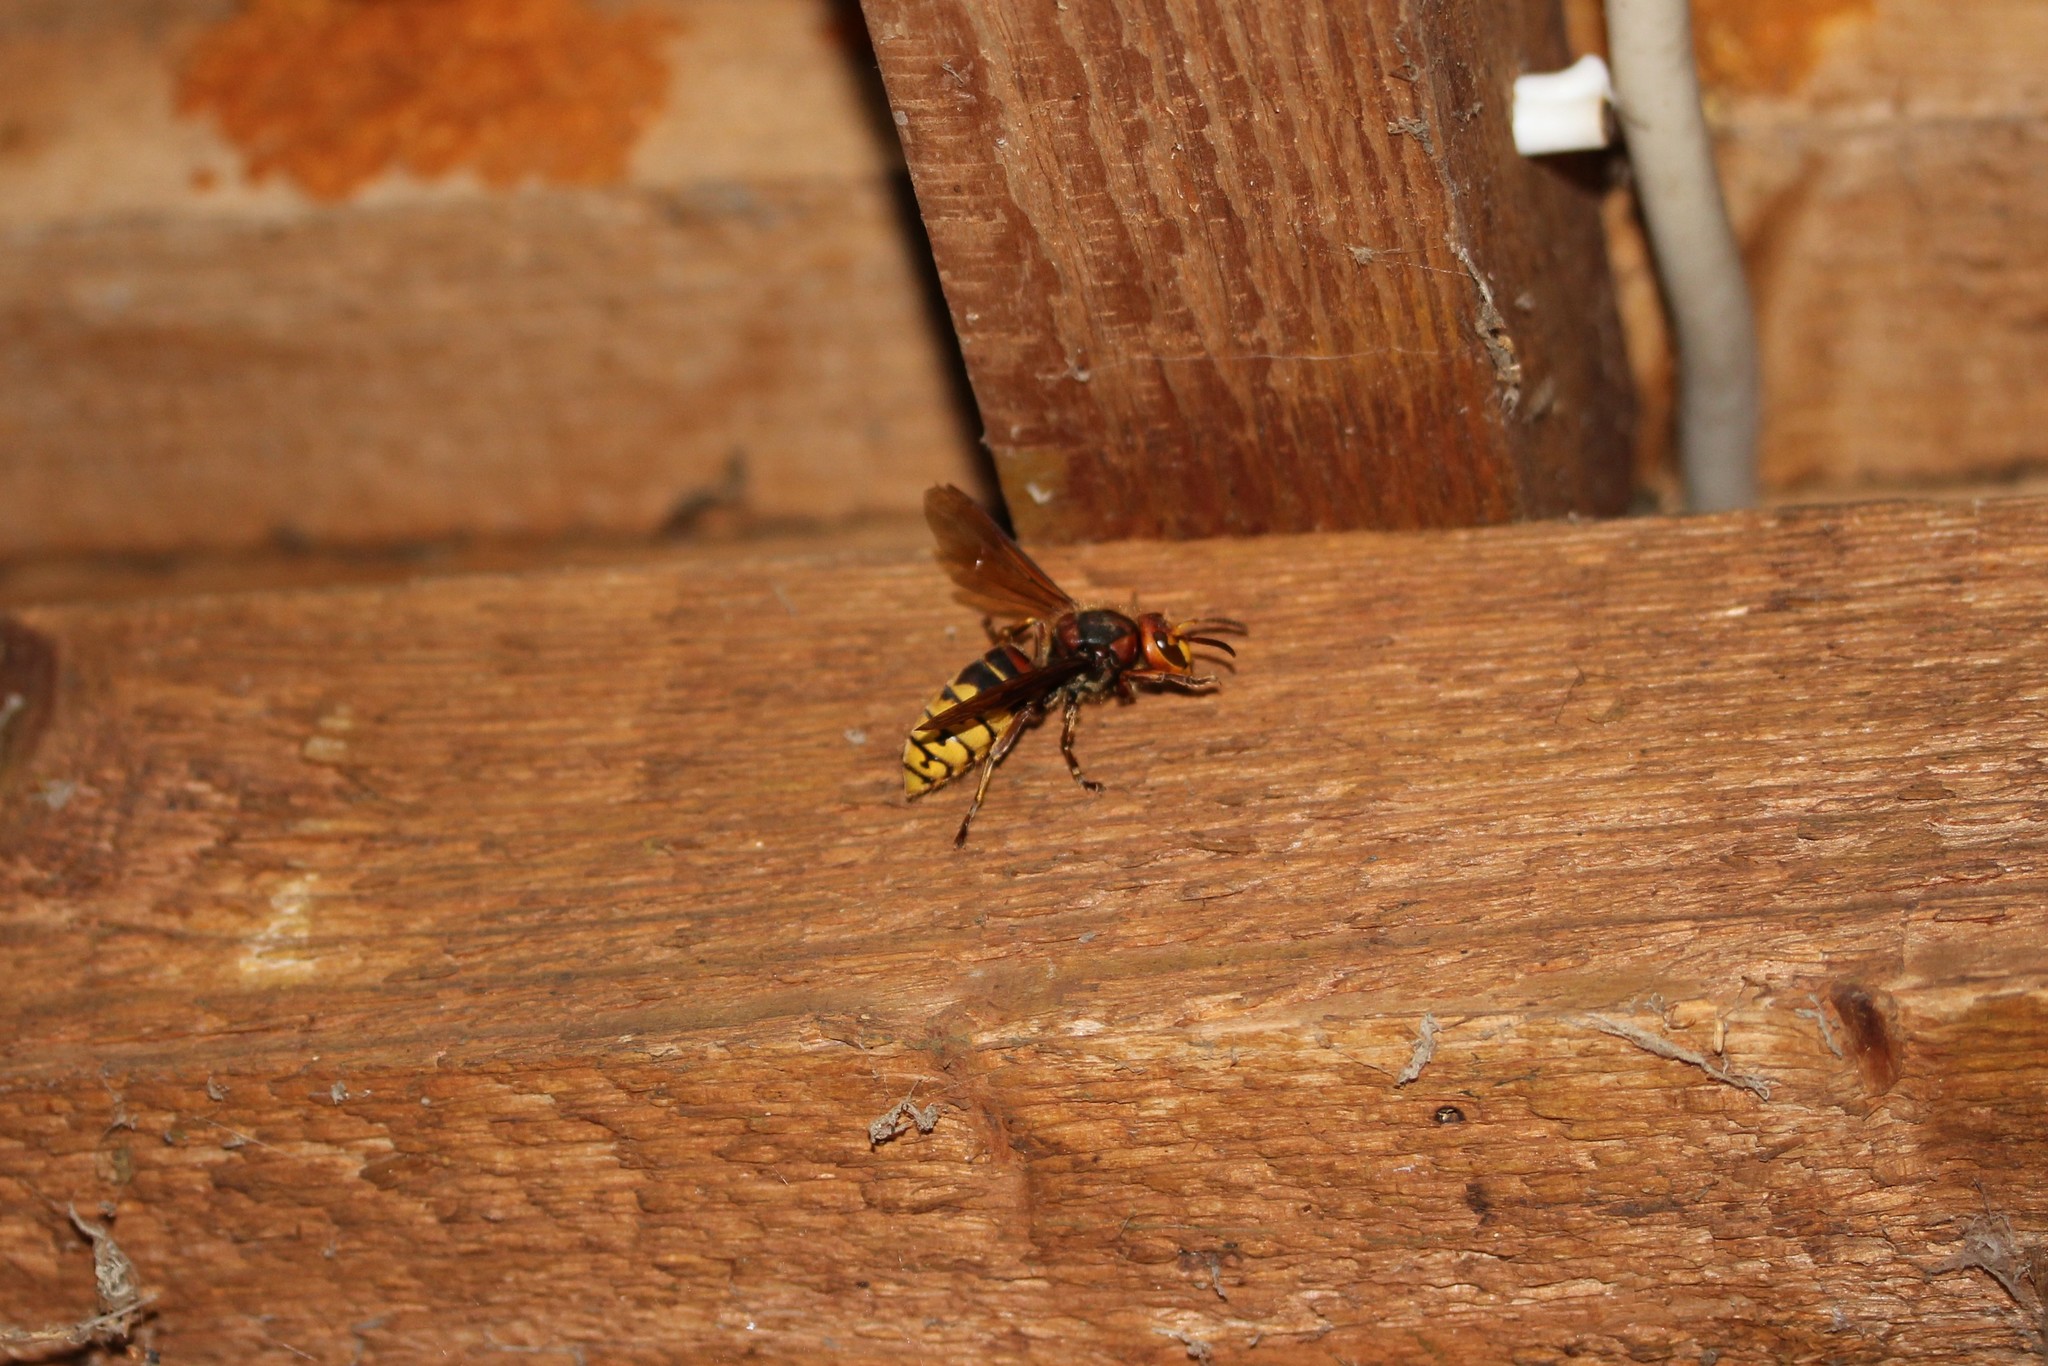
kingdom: Animalia
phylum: Arthropoda
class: Insecta
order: Hymenoptera
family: Vespidae
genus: Vespa
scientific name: Vespa crabro
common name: Hornet
